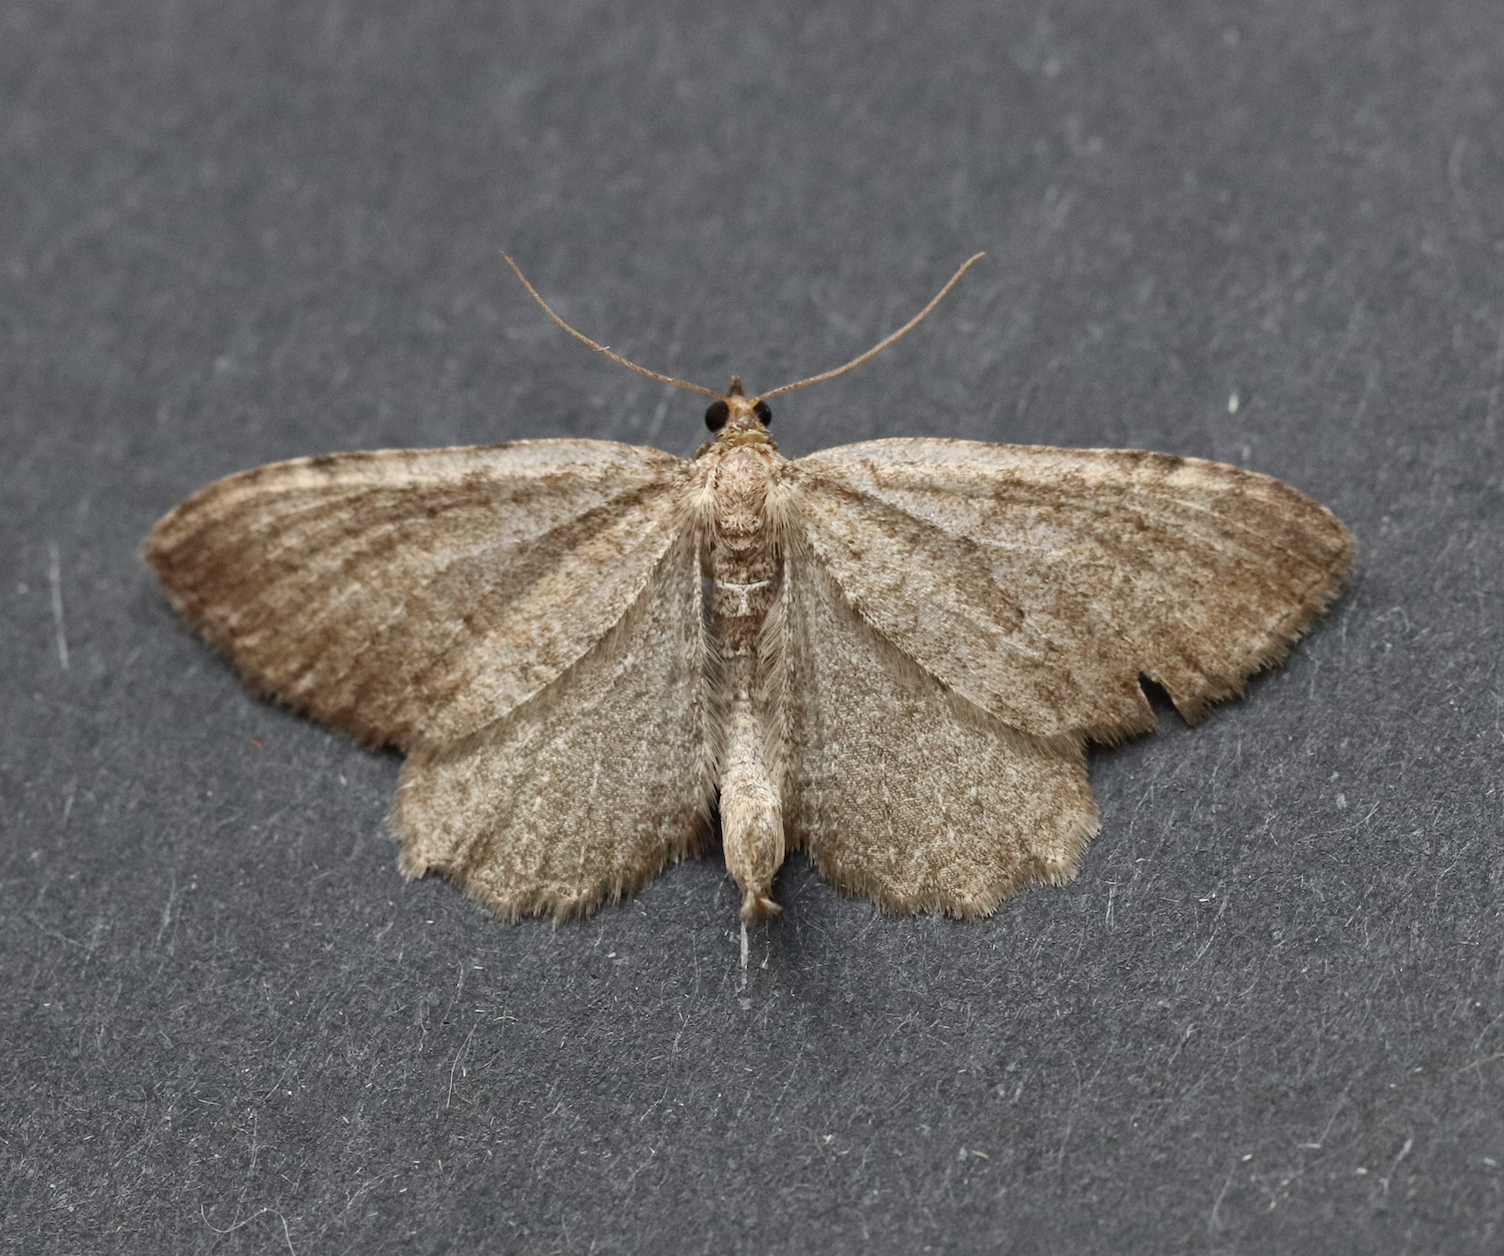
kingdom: Animalia
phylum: Arthropoda
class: Insecta
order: Lepidoptera
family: Geometridae
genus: Philereme
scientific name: Philereme vetulata
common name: Brown scallop
